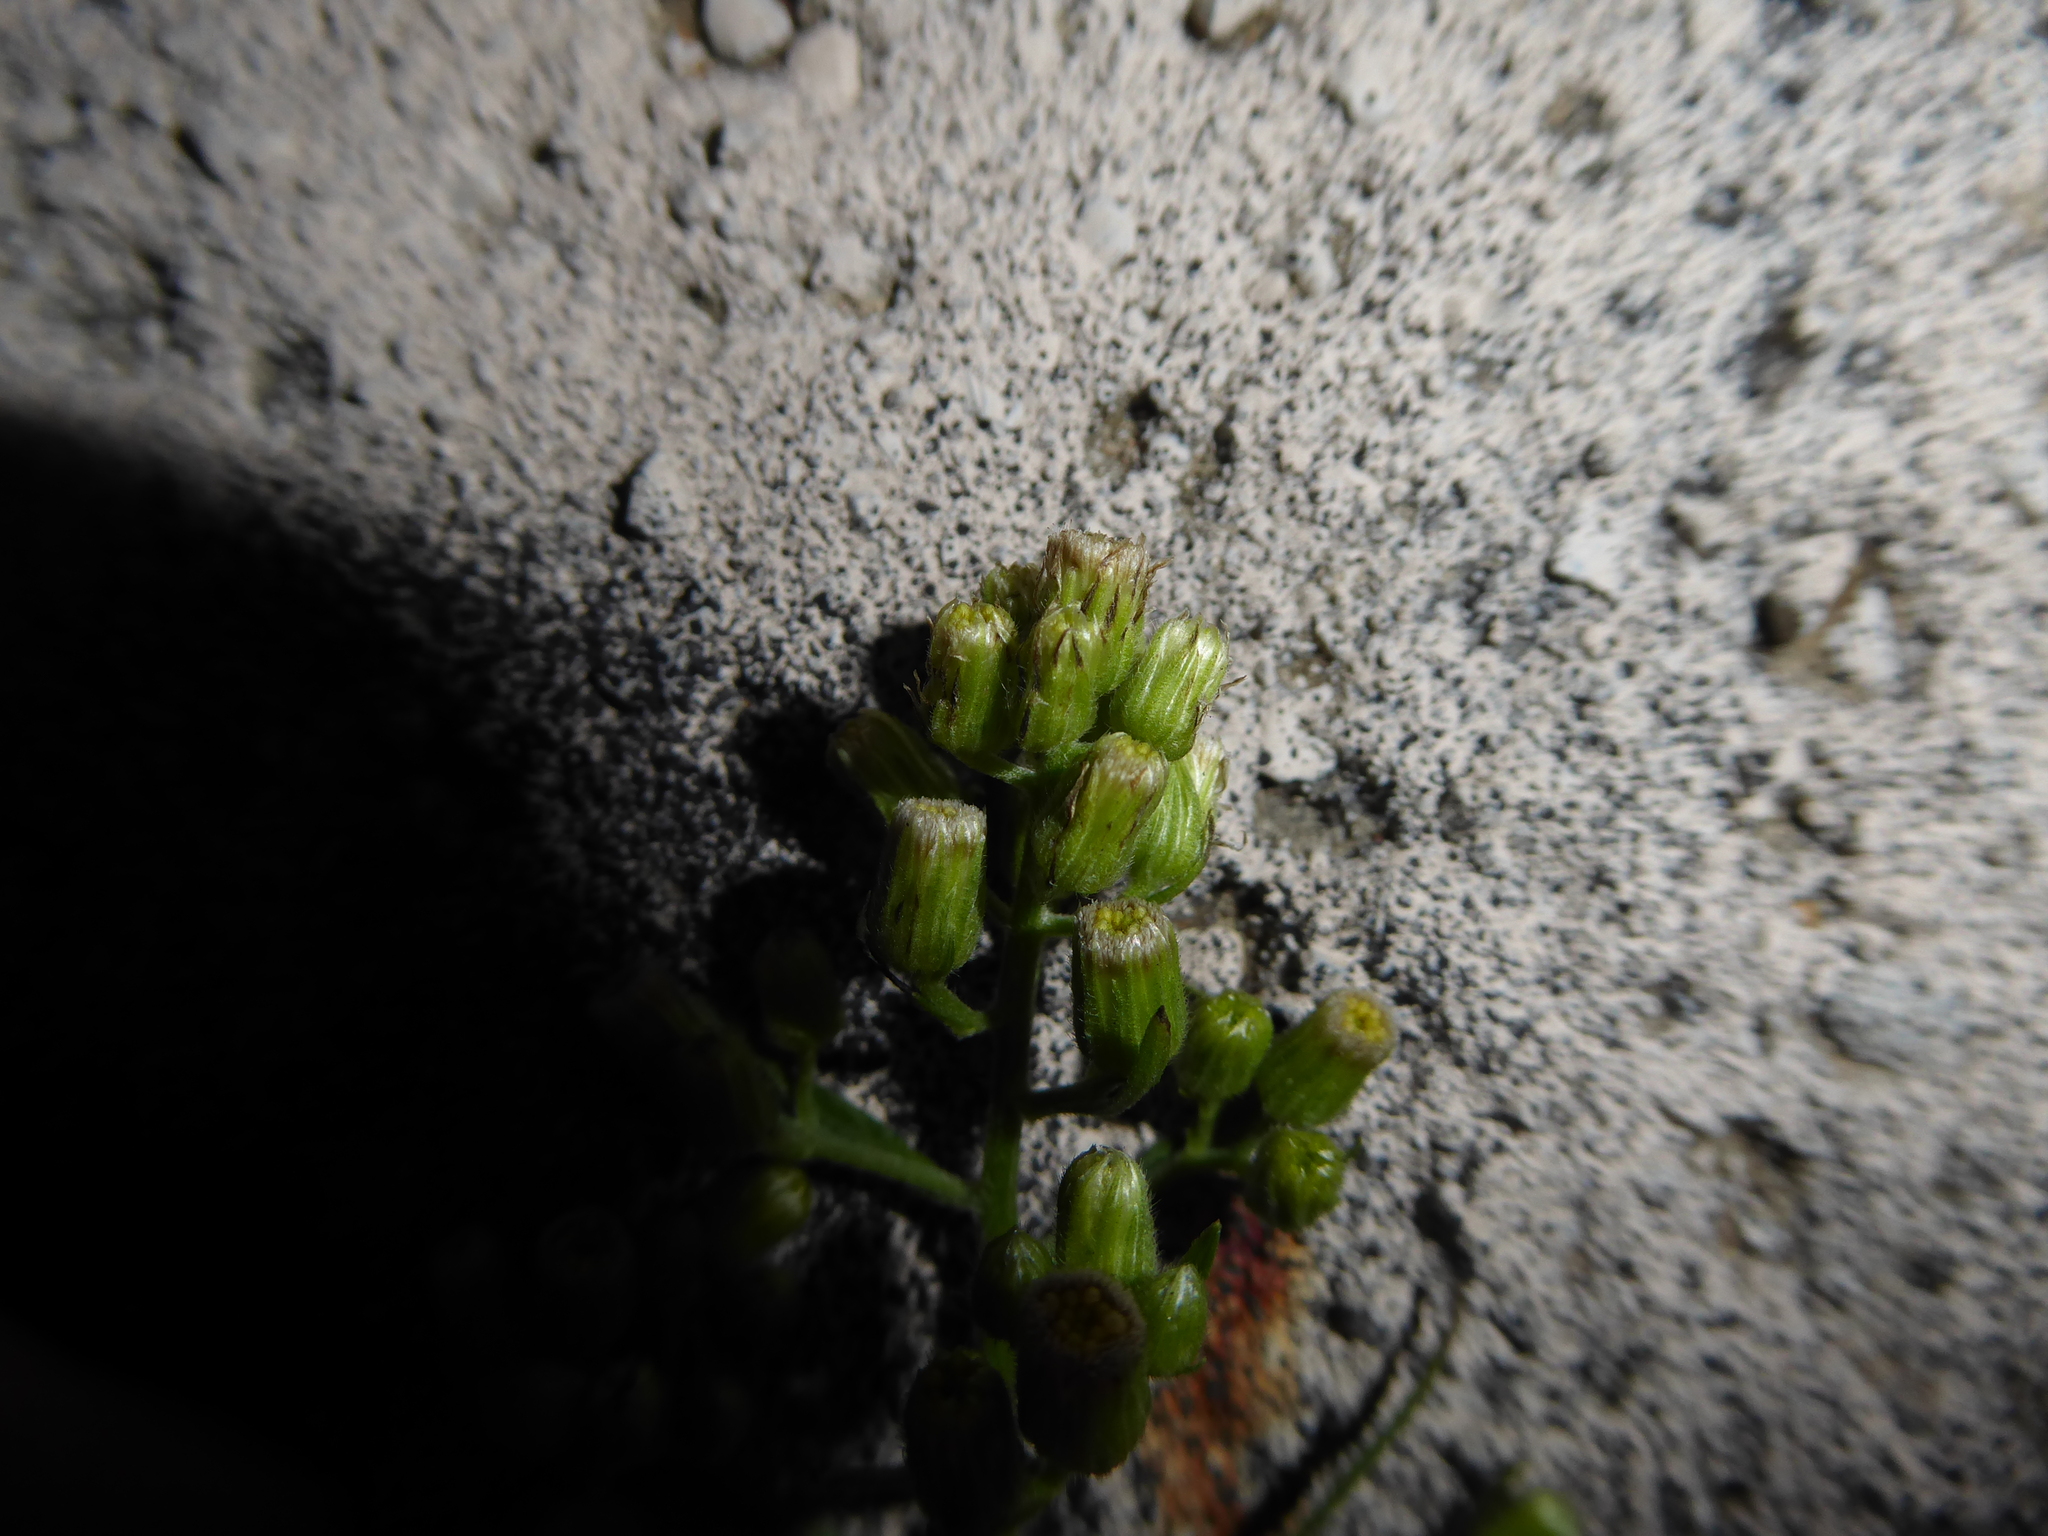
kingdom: Plantae
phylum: Tracheophyta
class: Magnoliopsida
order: Asterales
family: Asteraceae
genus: Erigeron
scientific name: Erigeron sumatrensis
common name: Daisy
